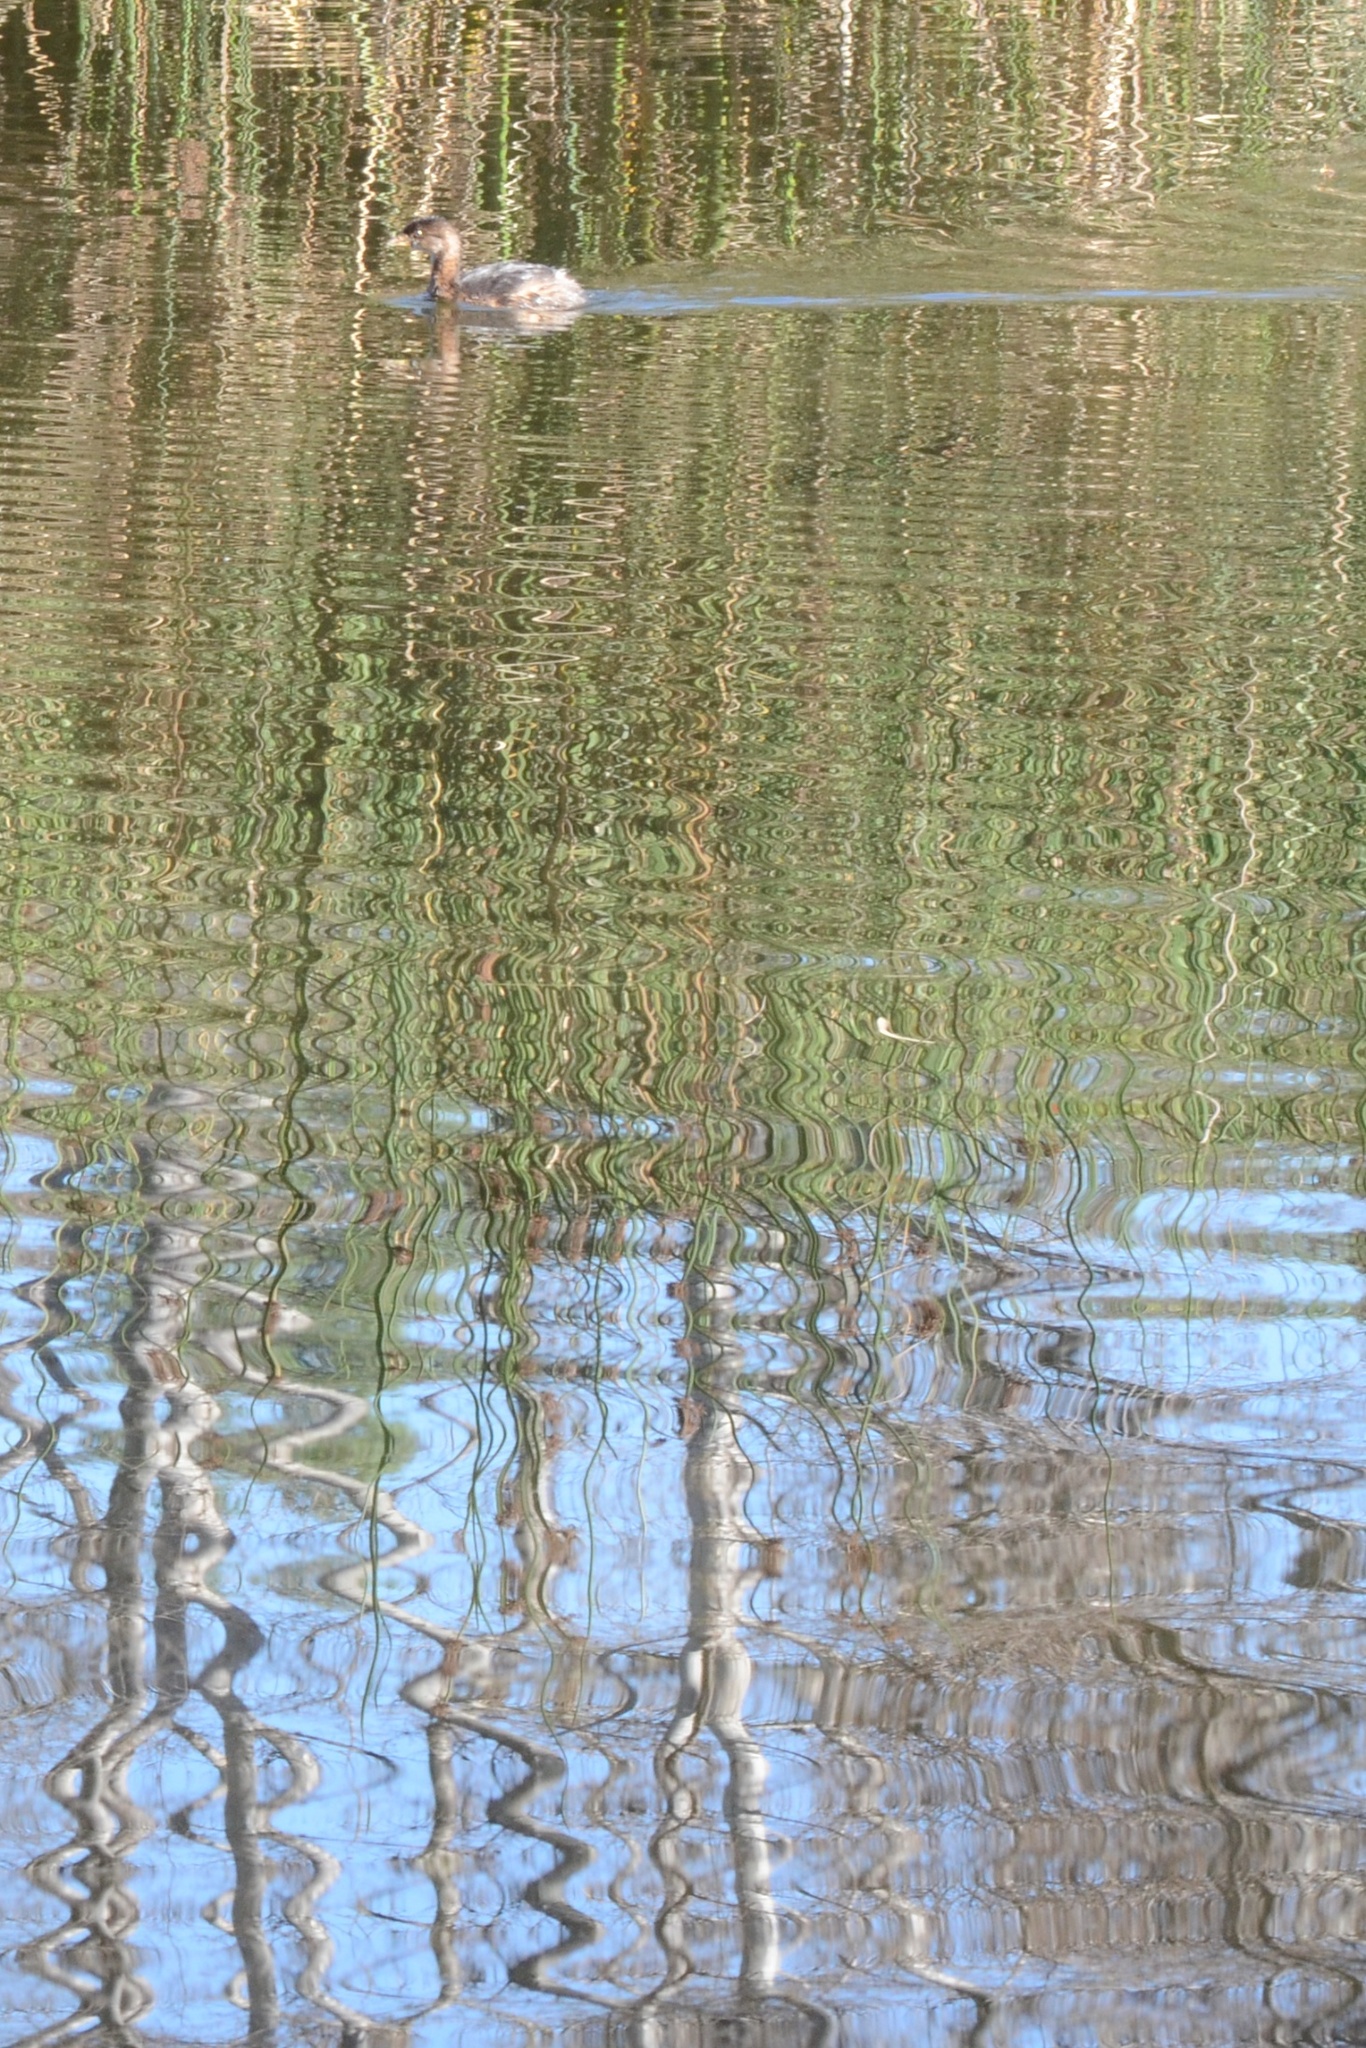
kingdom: Animalia
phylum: Chordata
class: Aves
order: Podicipediformes
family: Podicipedidae
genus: Podilymbus
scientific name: Podilymbus podiceps
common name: Pied-billed grebe
